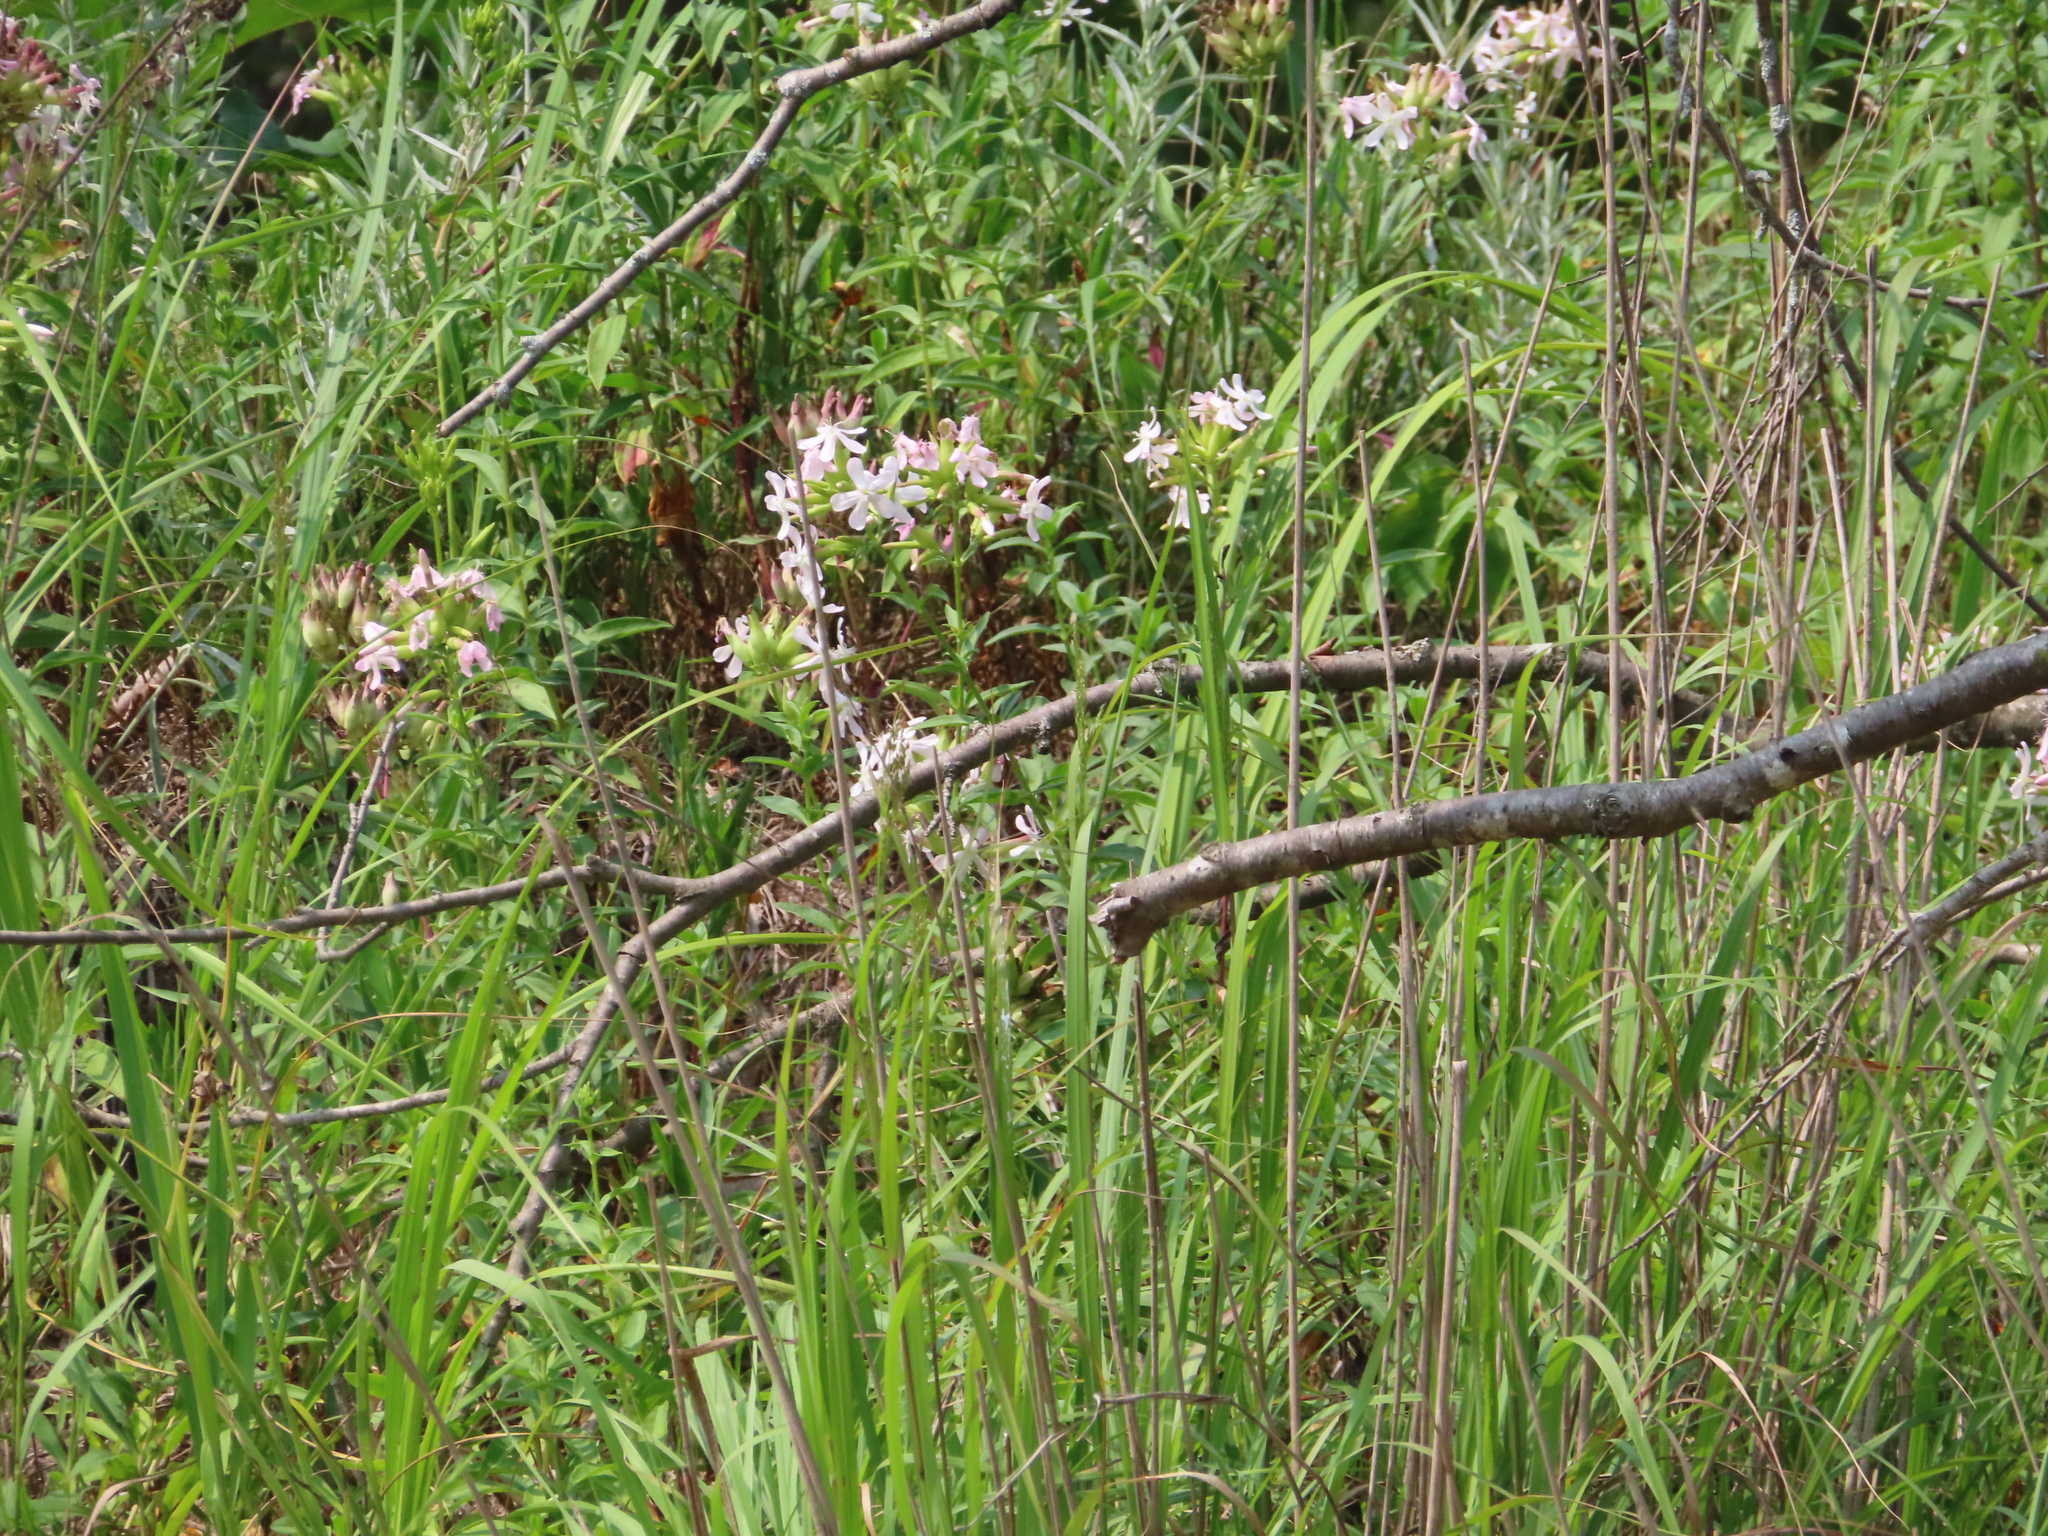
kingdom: Plantae
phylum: Tracheophyta
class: Magnoliopsida
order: Caryophyllales
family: Caryophyllaceae
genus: Saponaria
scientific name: Saponaria officinalis
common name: Soapwort
